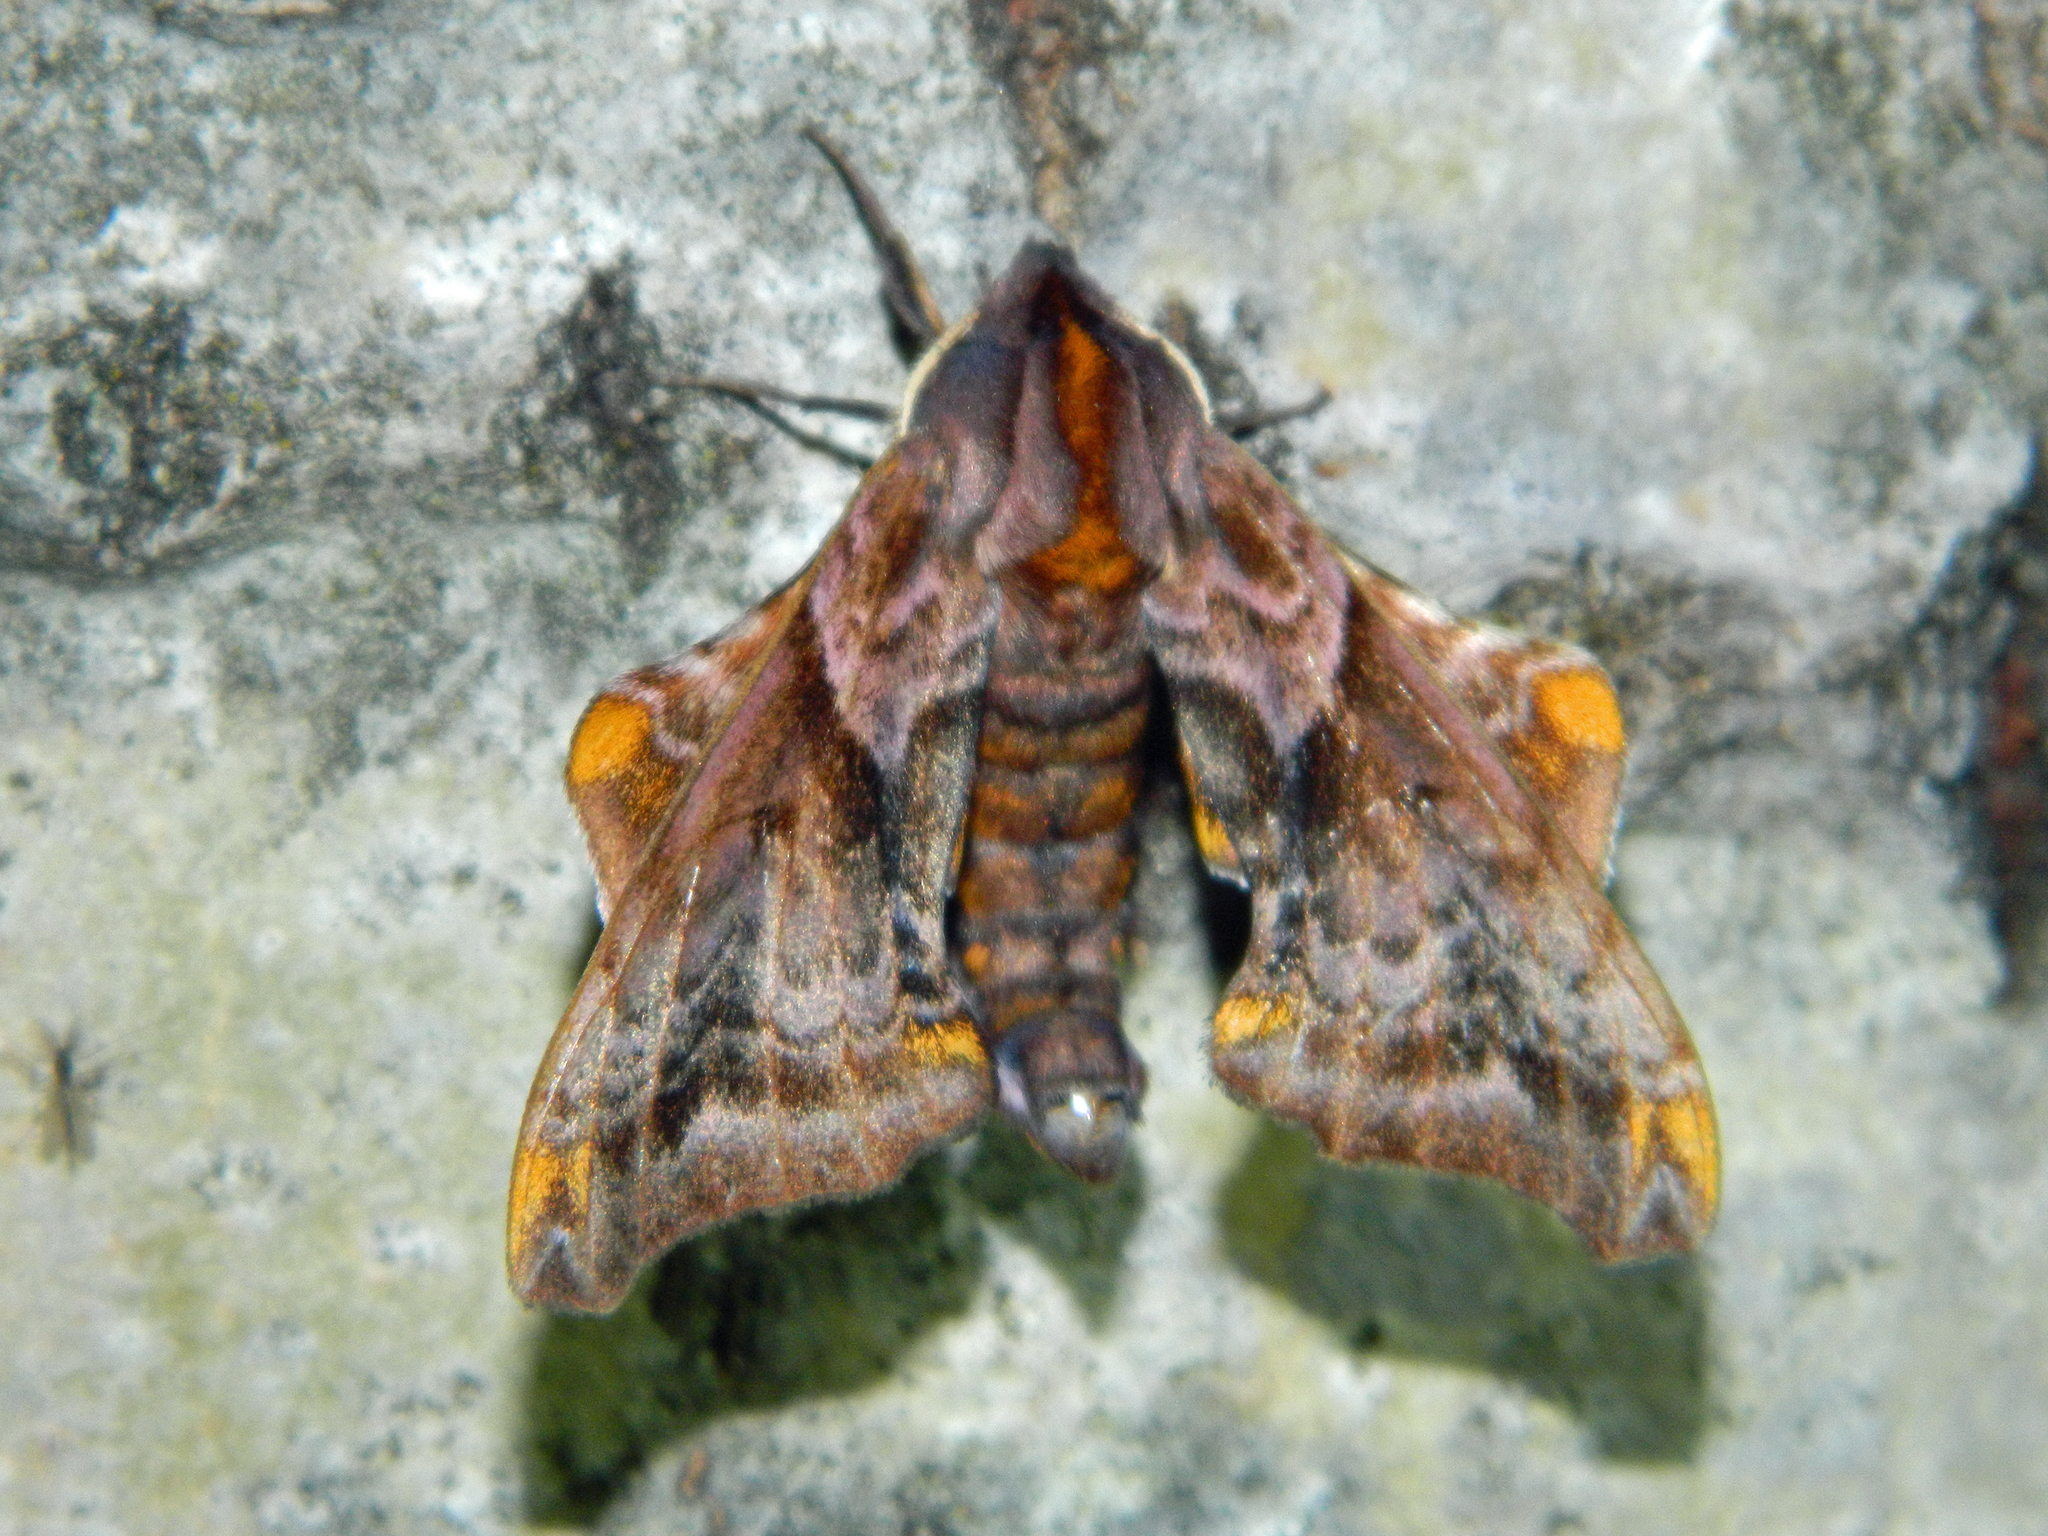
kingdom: Animalia
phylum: Arthropoda
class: Insecta
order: Lepidoptera
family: Sphingidae
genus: Paonias
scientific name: Paonias myops
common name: Small-eyed sphinx
